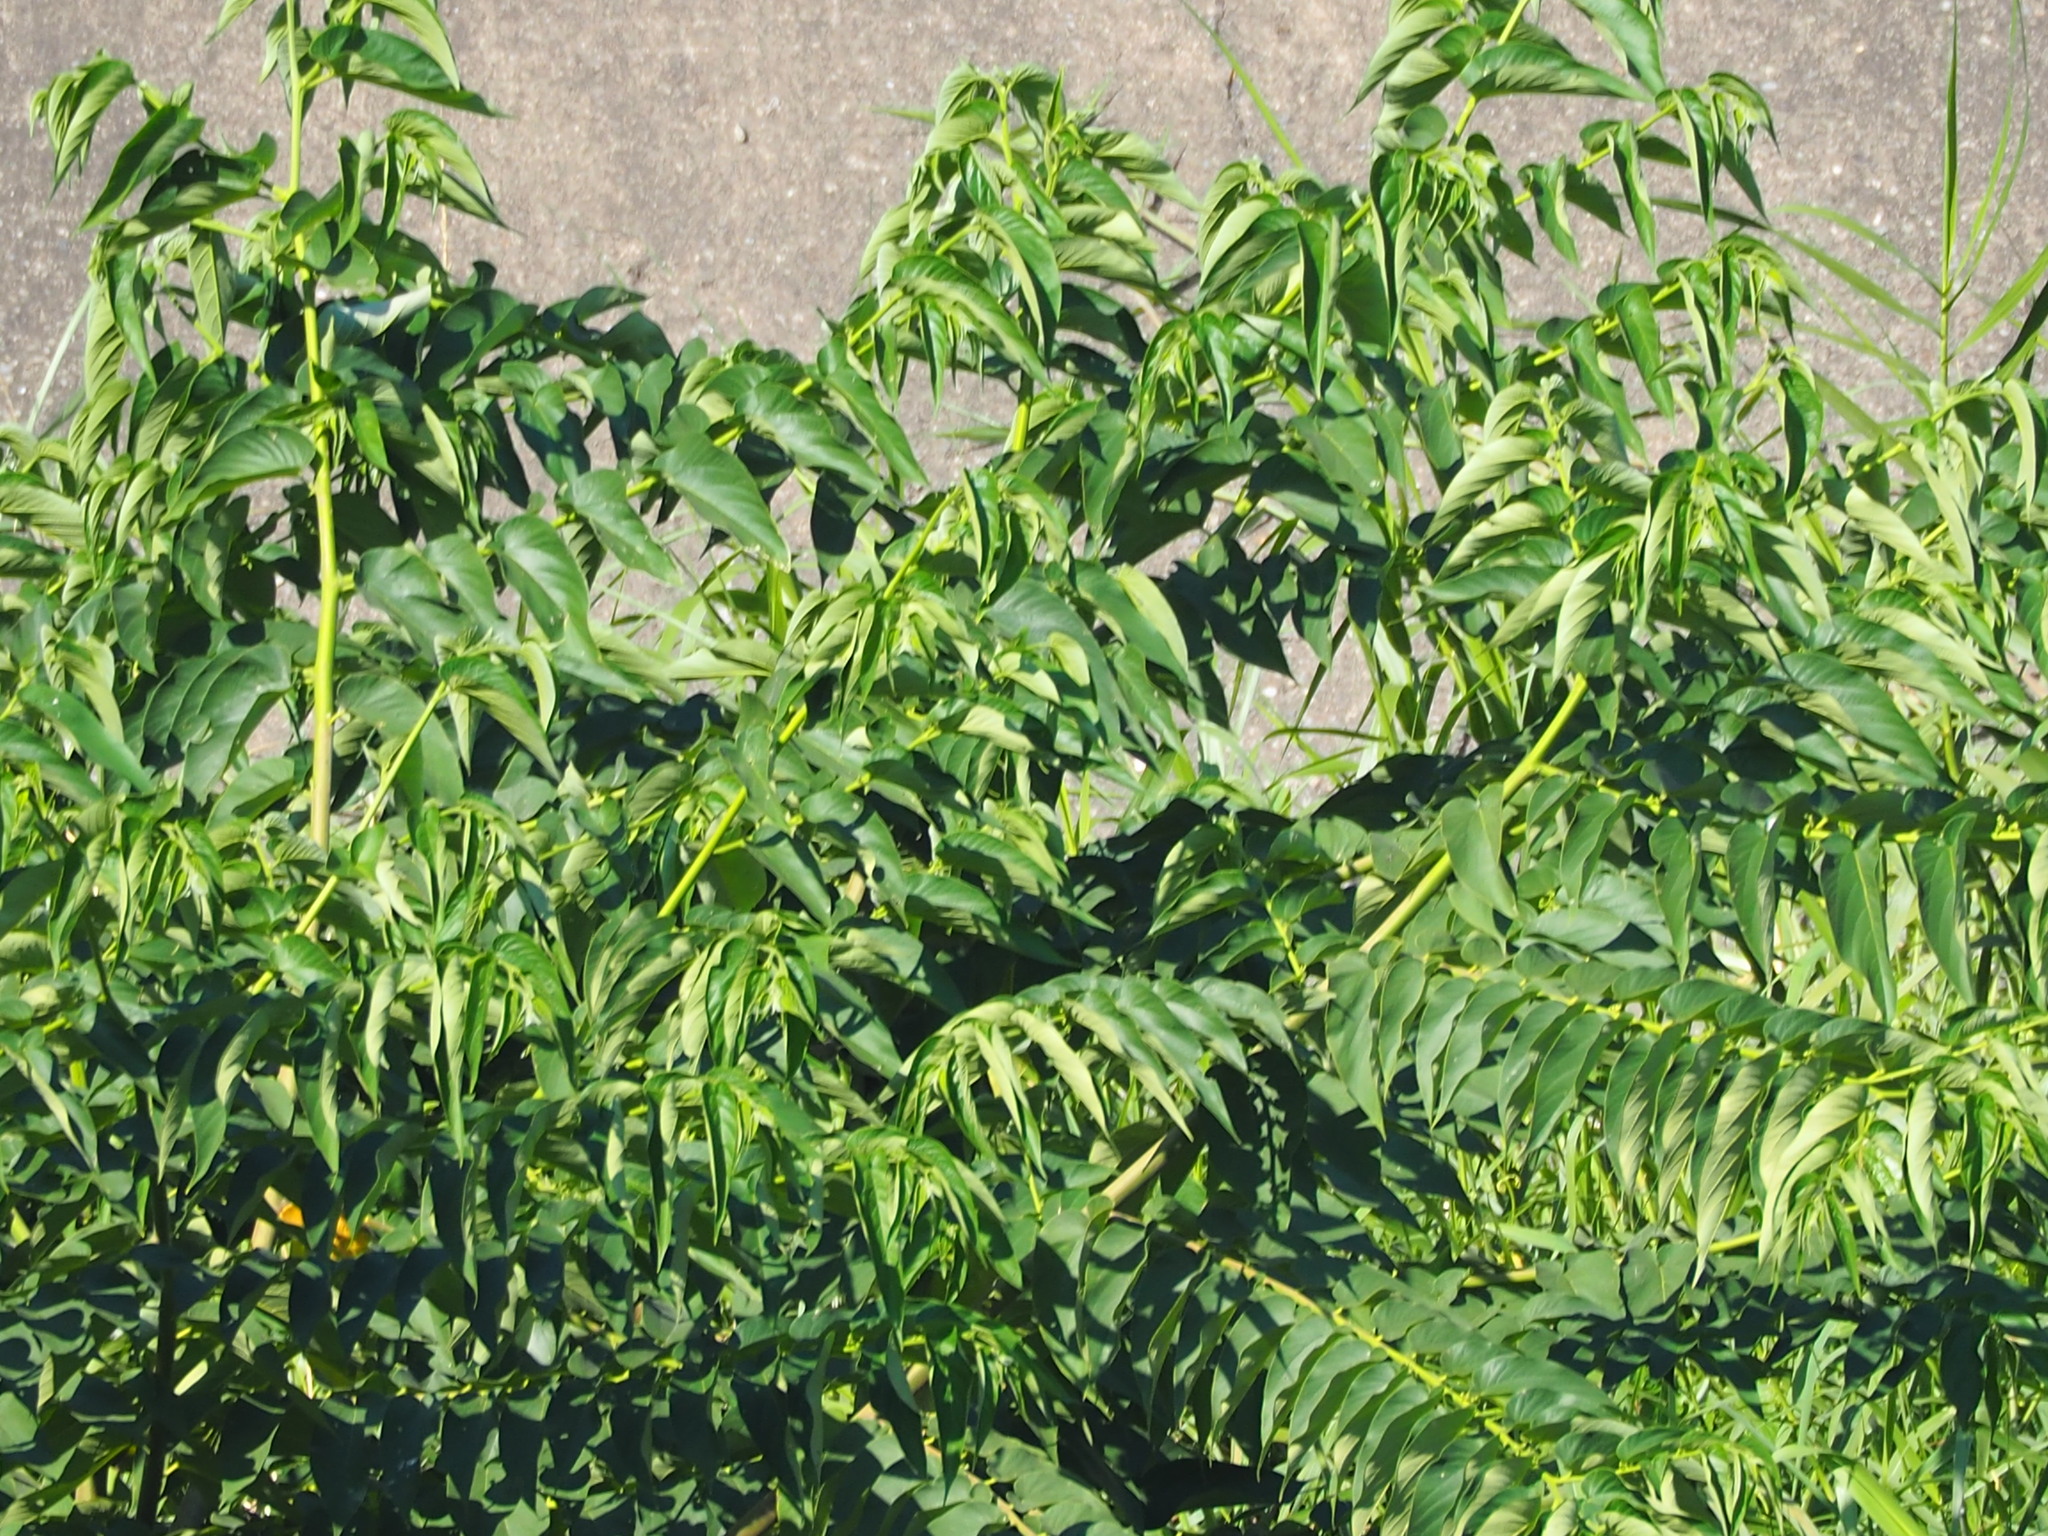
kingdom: Plantae
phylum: Tracheophyta
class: Magnoliopsida
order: Rosales
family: Cannabaceae
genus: Trema
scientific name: Trema orientale
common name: Indian charcoal tree
